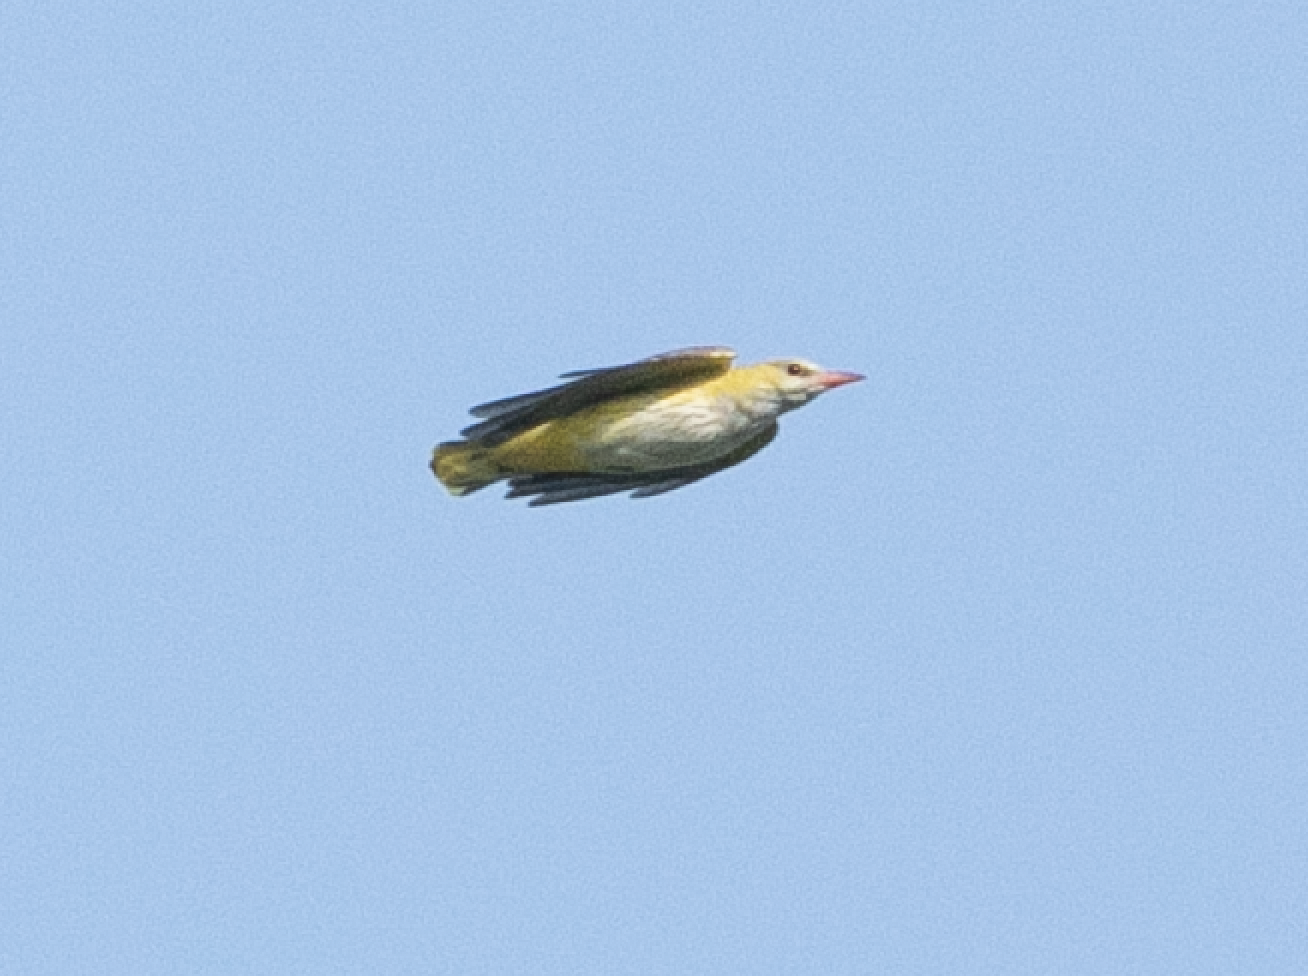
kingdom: Animalia
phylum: Chordata
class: Aves
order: Passeriformes
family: Oriolidae
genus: Oriolus
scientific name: Oriolus oriolus
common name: Eurasian golden oriole
